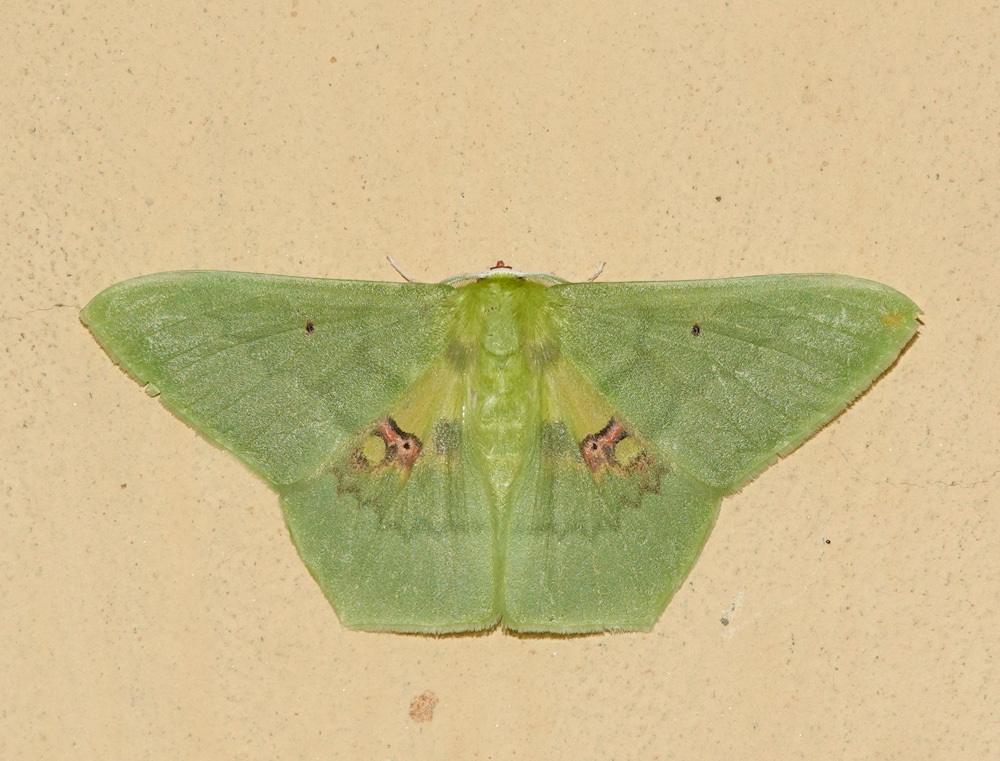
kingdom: Animalia
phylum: Arthropoda
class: Insecta
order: Lepidoptera
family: Geometridae
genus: Aporandria
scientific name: Aporandria specularia
